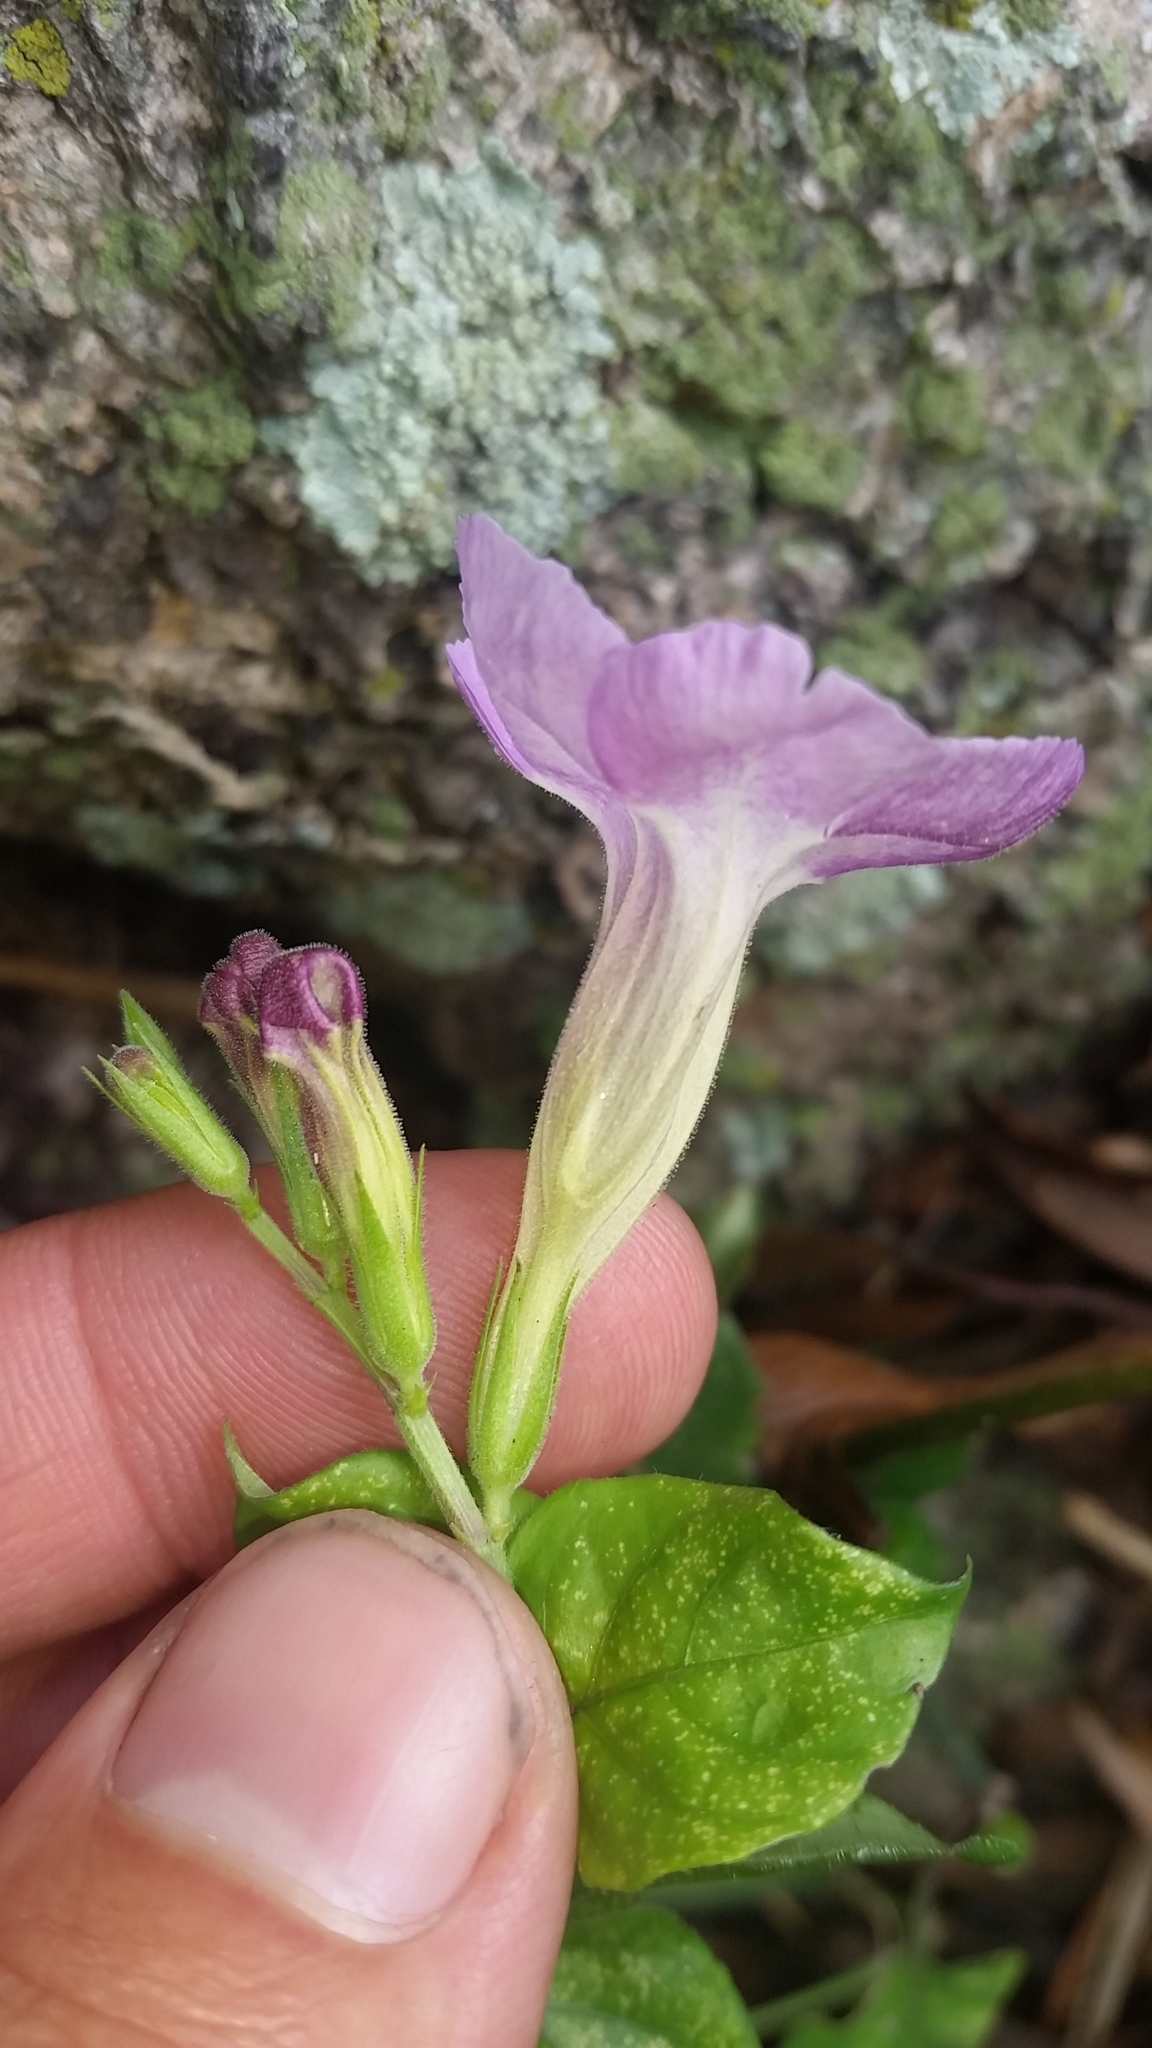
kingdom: Plantae
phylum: Tracheophyta
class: Magnoliopsida
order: Lamiales
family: Acanthaceae
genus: Asystasia
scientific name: Asystasia gangetica
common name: Chinese violet
